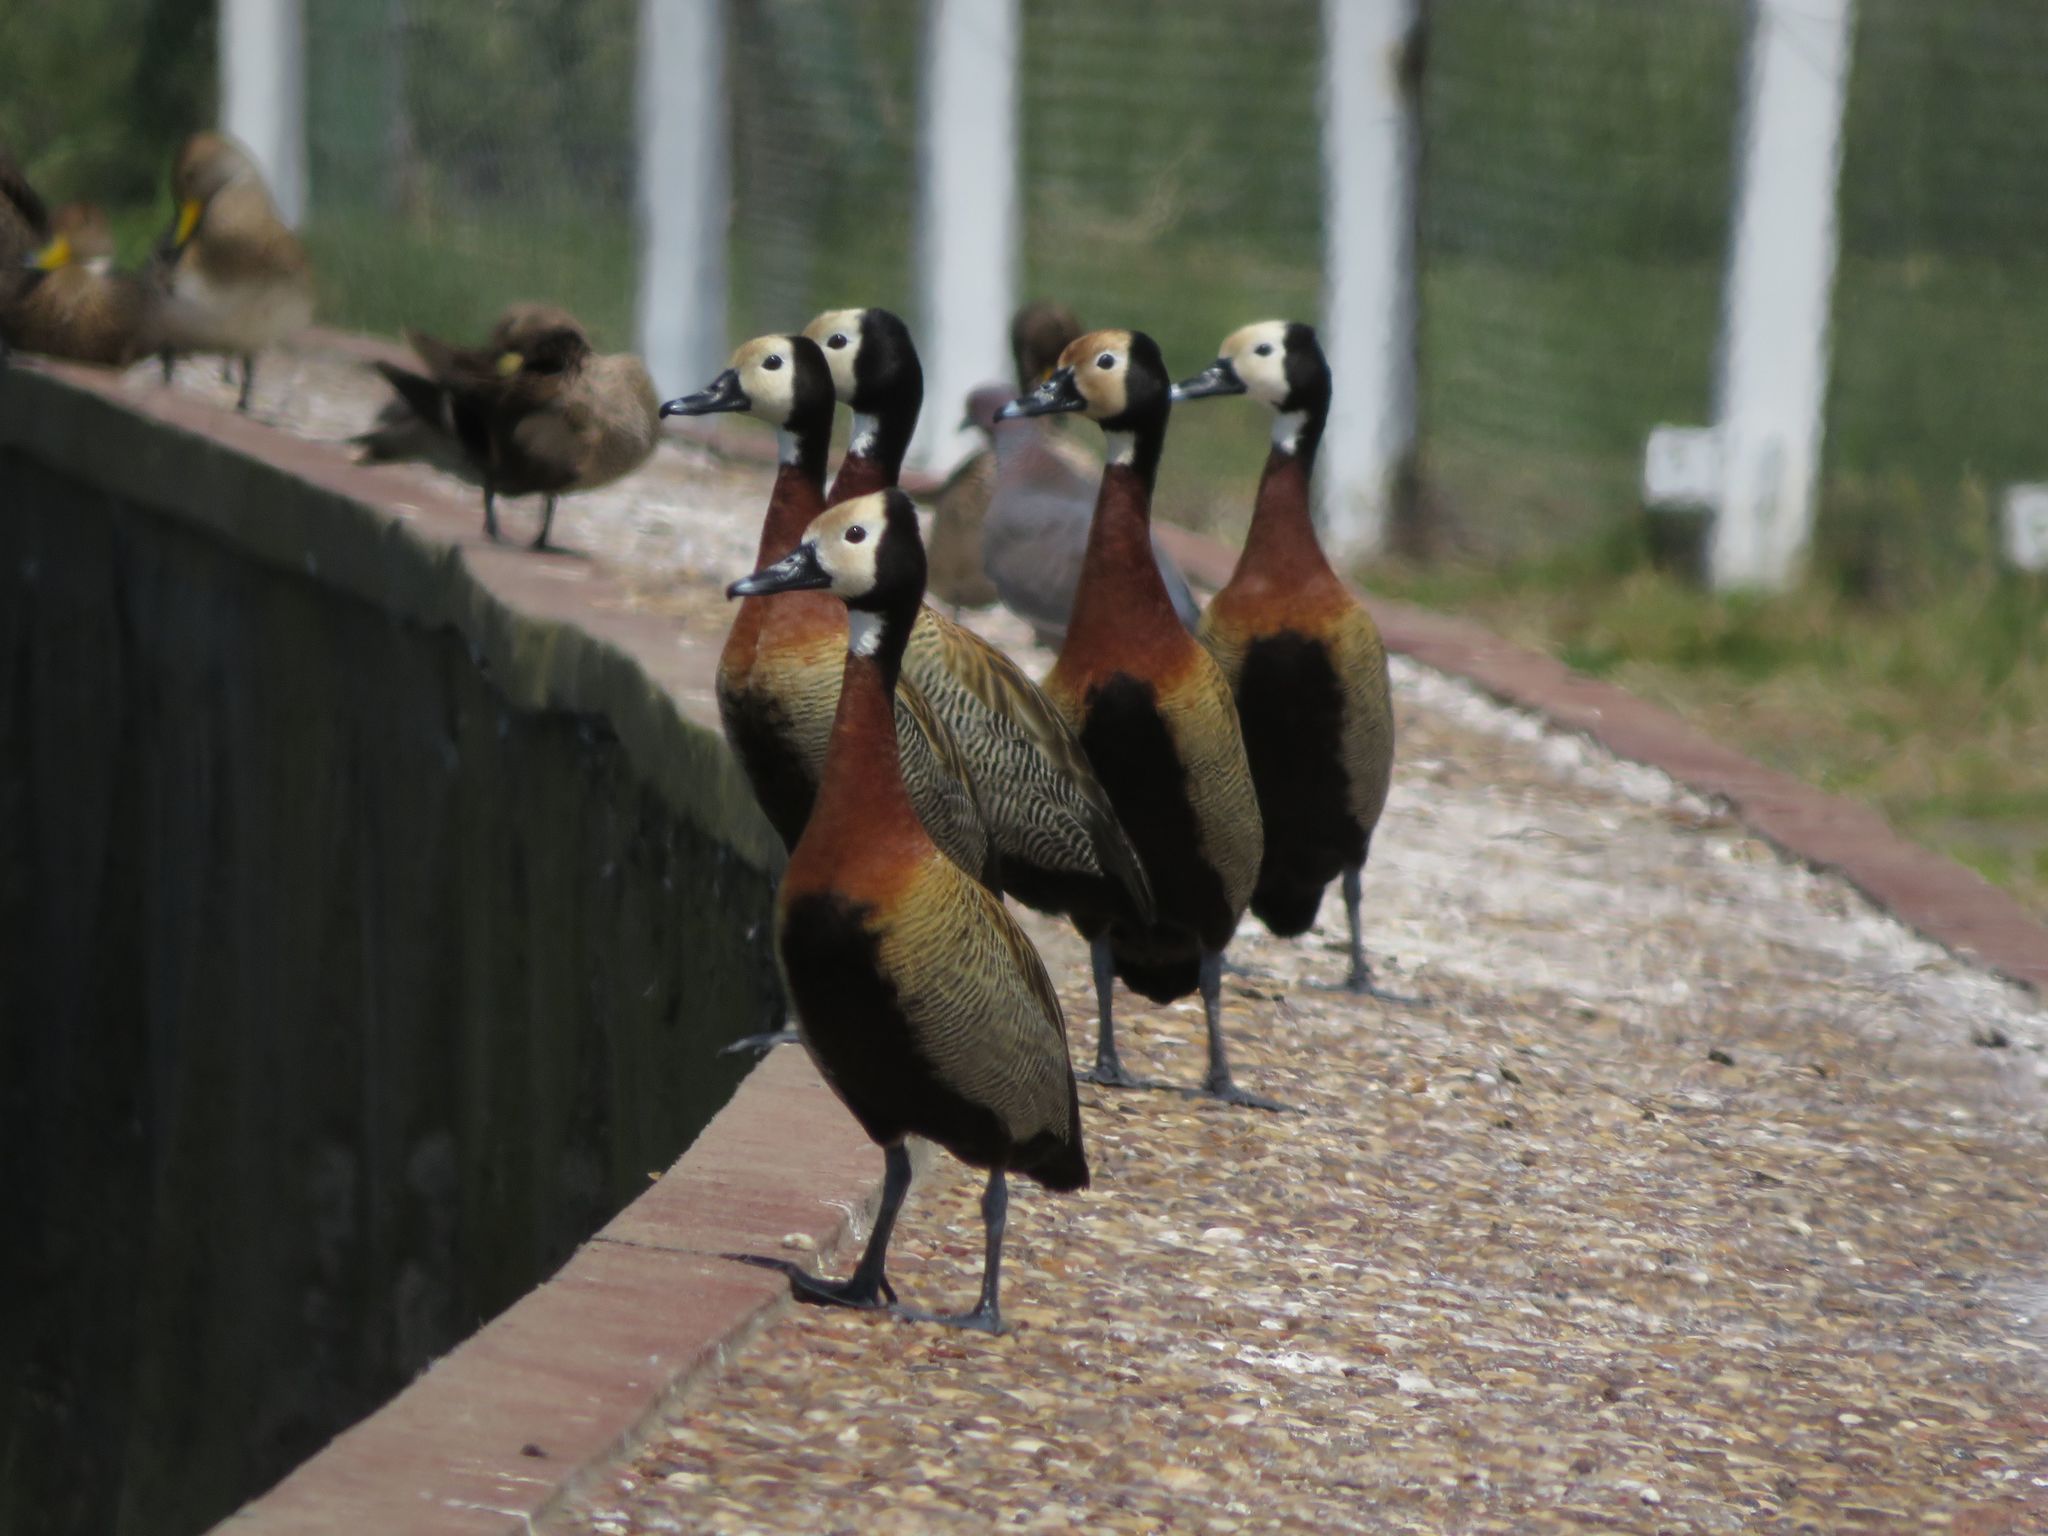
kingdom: Animalia
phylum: Chordata
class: Aves
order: Anseriformes
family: Anatidae
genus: Dendrocygna
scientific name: Dendrocygna viduata
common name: White-faced whistling duck
